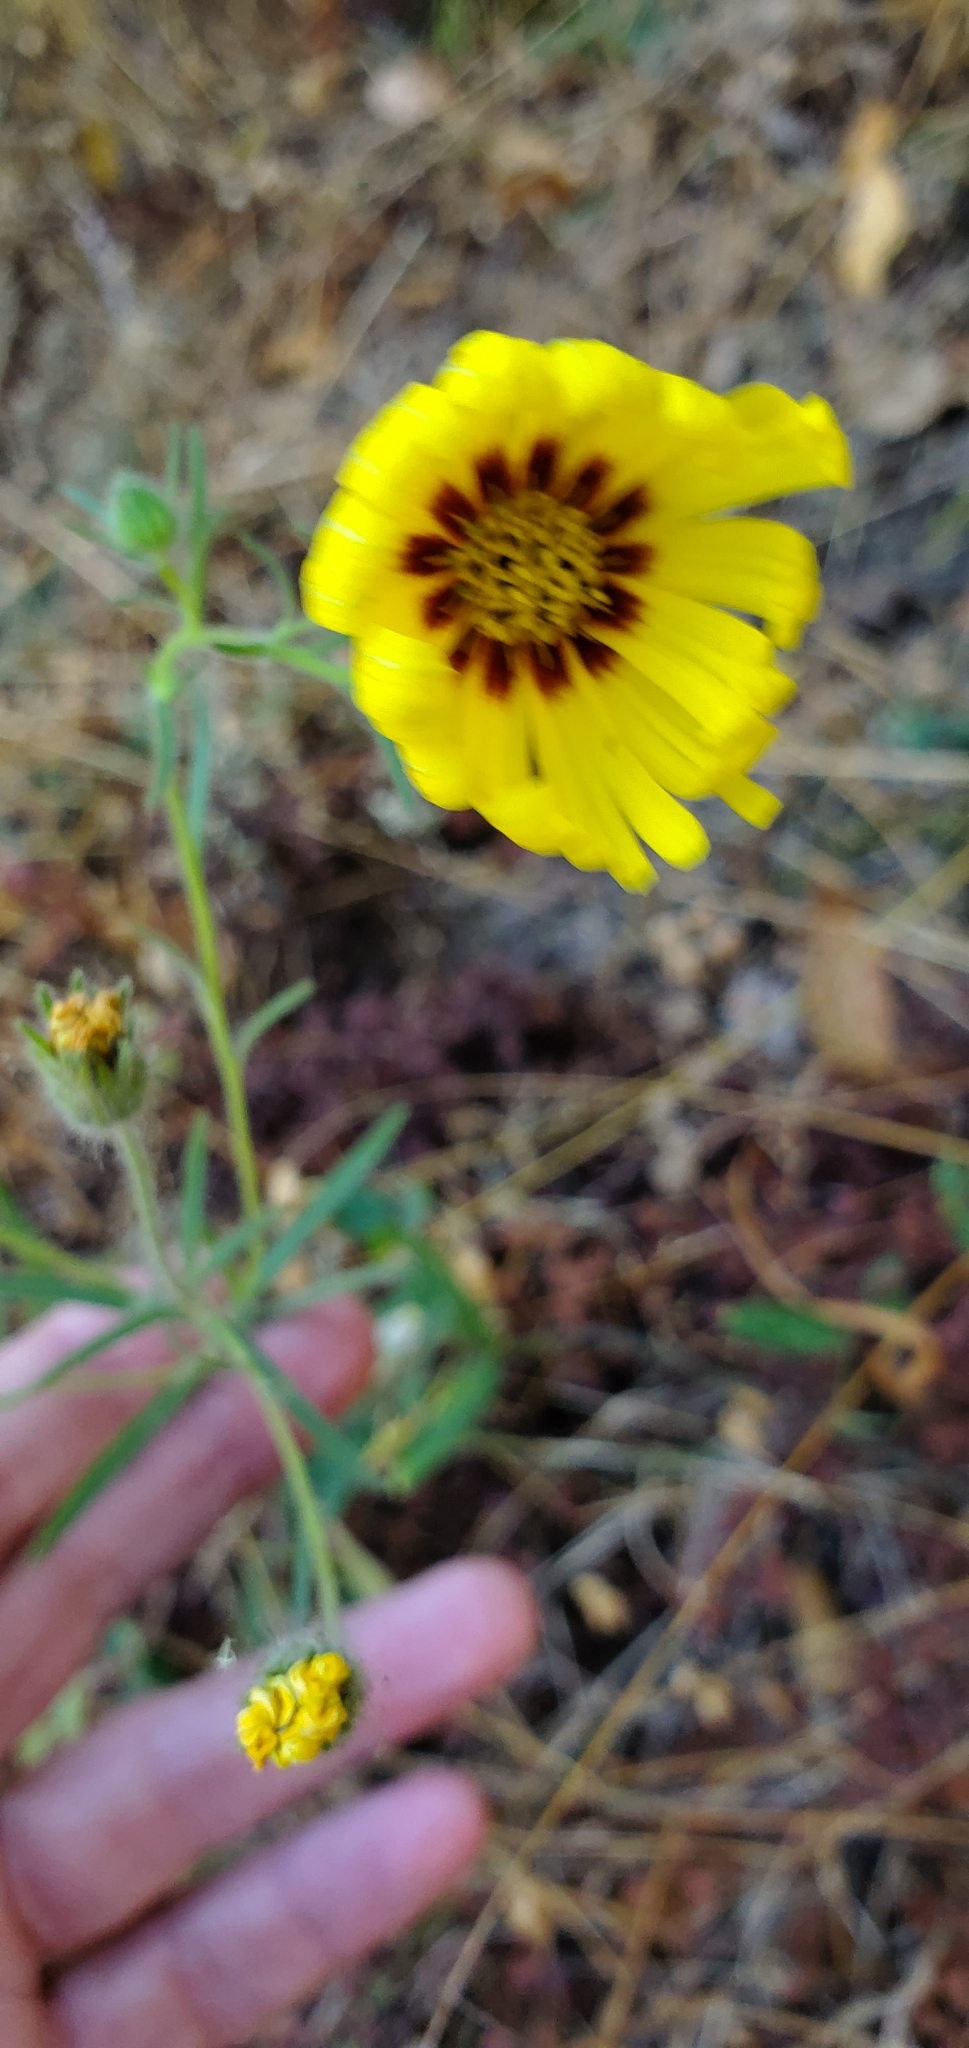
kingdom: Plantae
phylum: Tracheophyta
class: Magnoliopsida
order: Asterales
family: Asteraceae
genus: Madia
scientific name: Madia elegans
